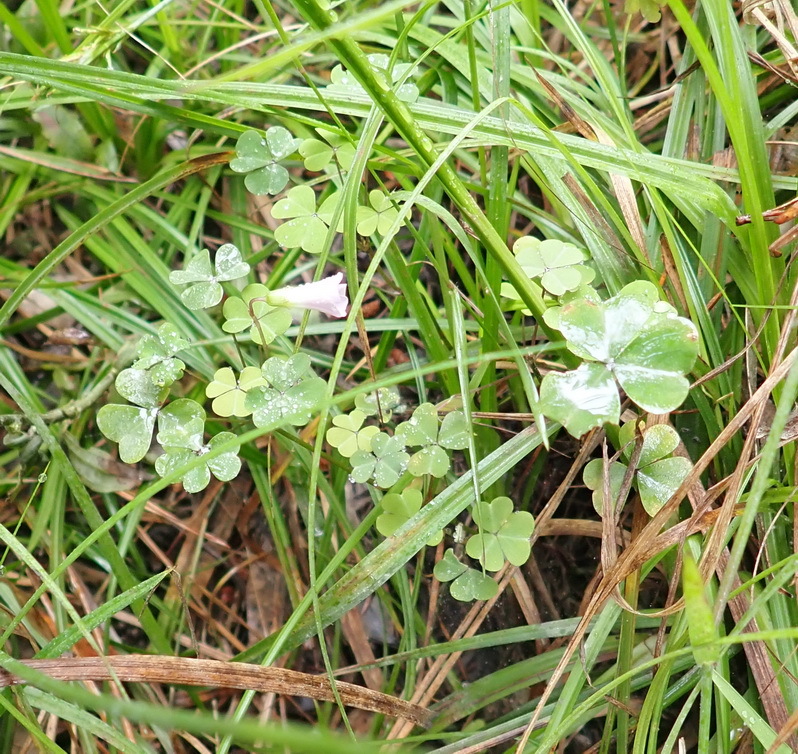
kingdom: Plantae
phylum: Tracheophyta
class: Magnoliopsida
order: Oxalidales
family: Oxalidaceae
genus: Oxalis
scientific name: Oxalis incarnata
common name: Pale pink-sorrel
